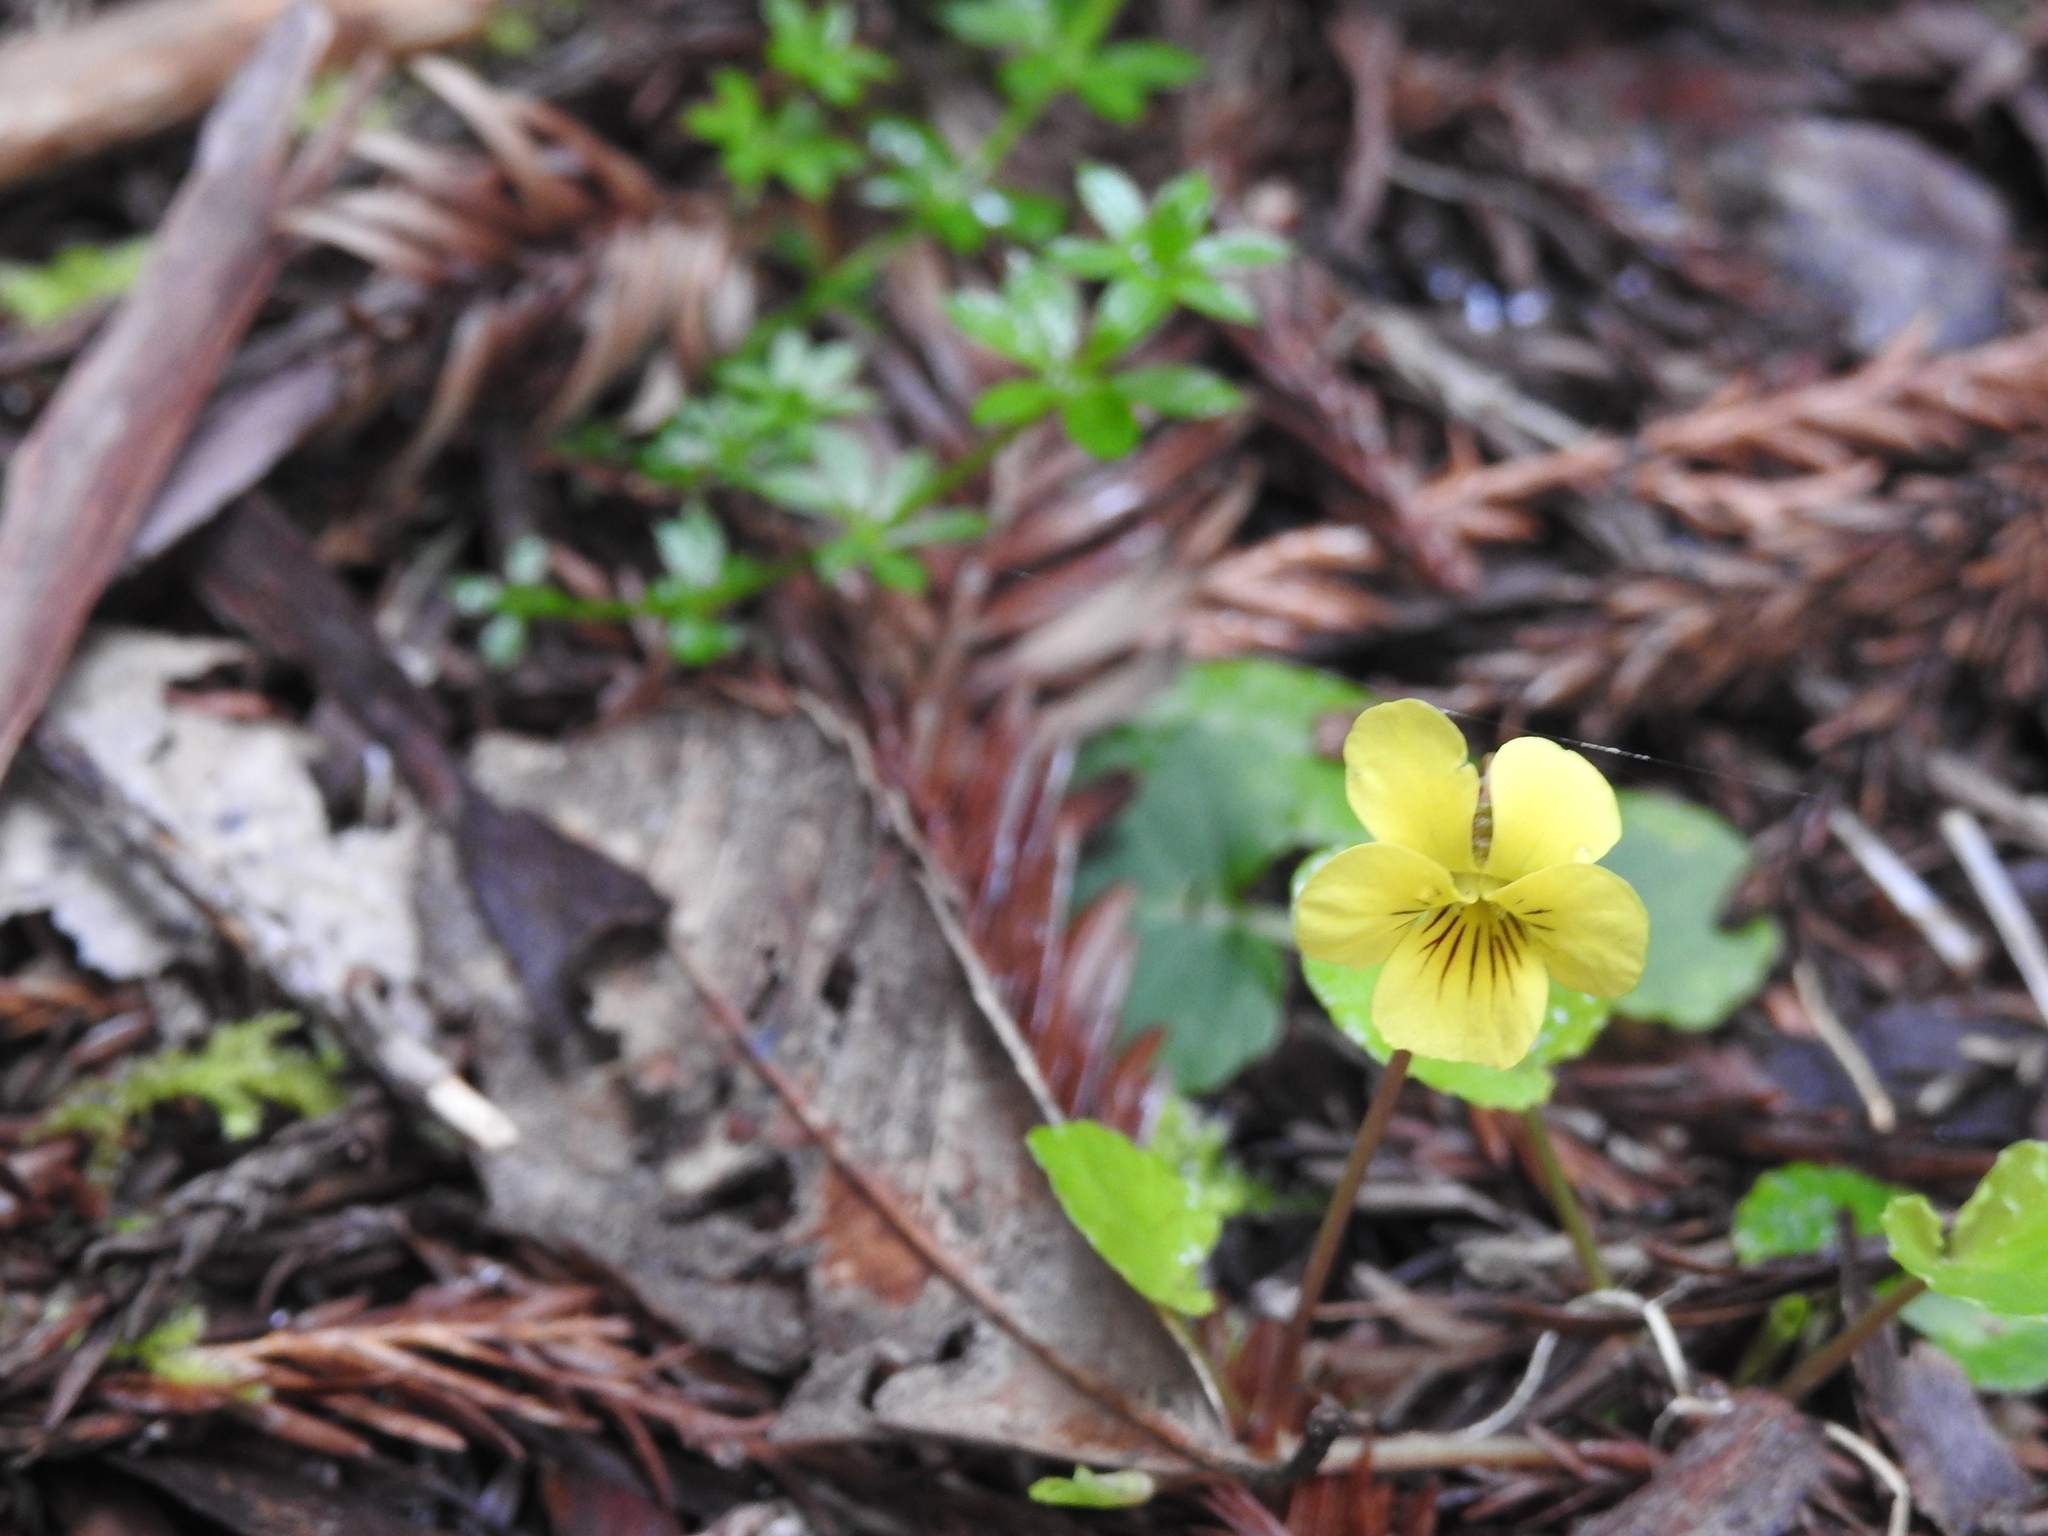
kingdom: Plantae
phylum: Tracheophyta
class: Magnoliopsida
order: Malpighiales
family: Violaceae
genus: Viola
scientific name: Viola sempervirens
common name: Evergreen violet
